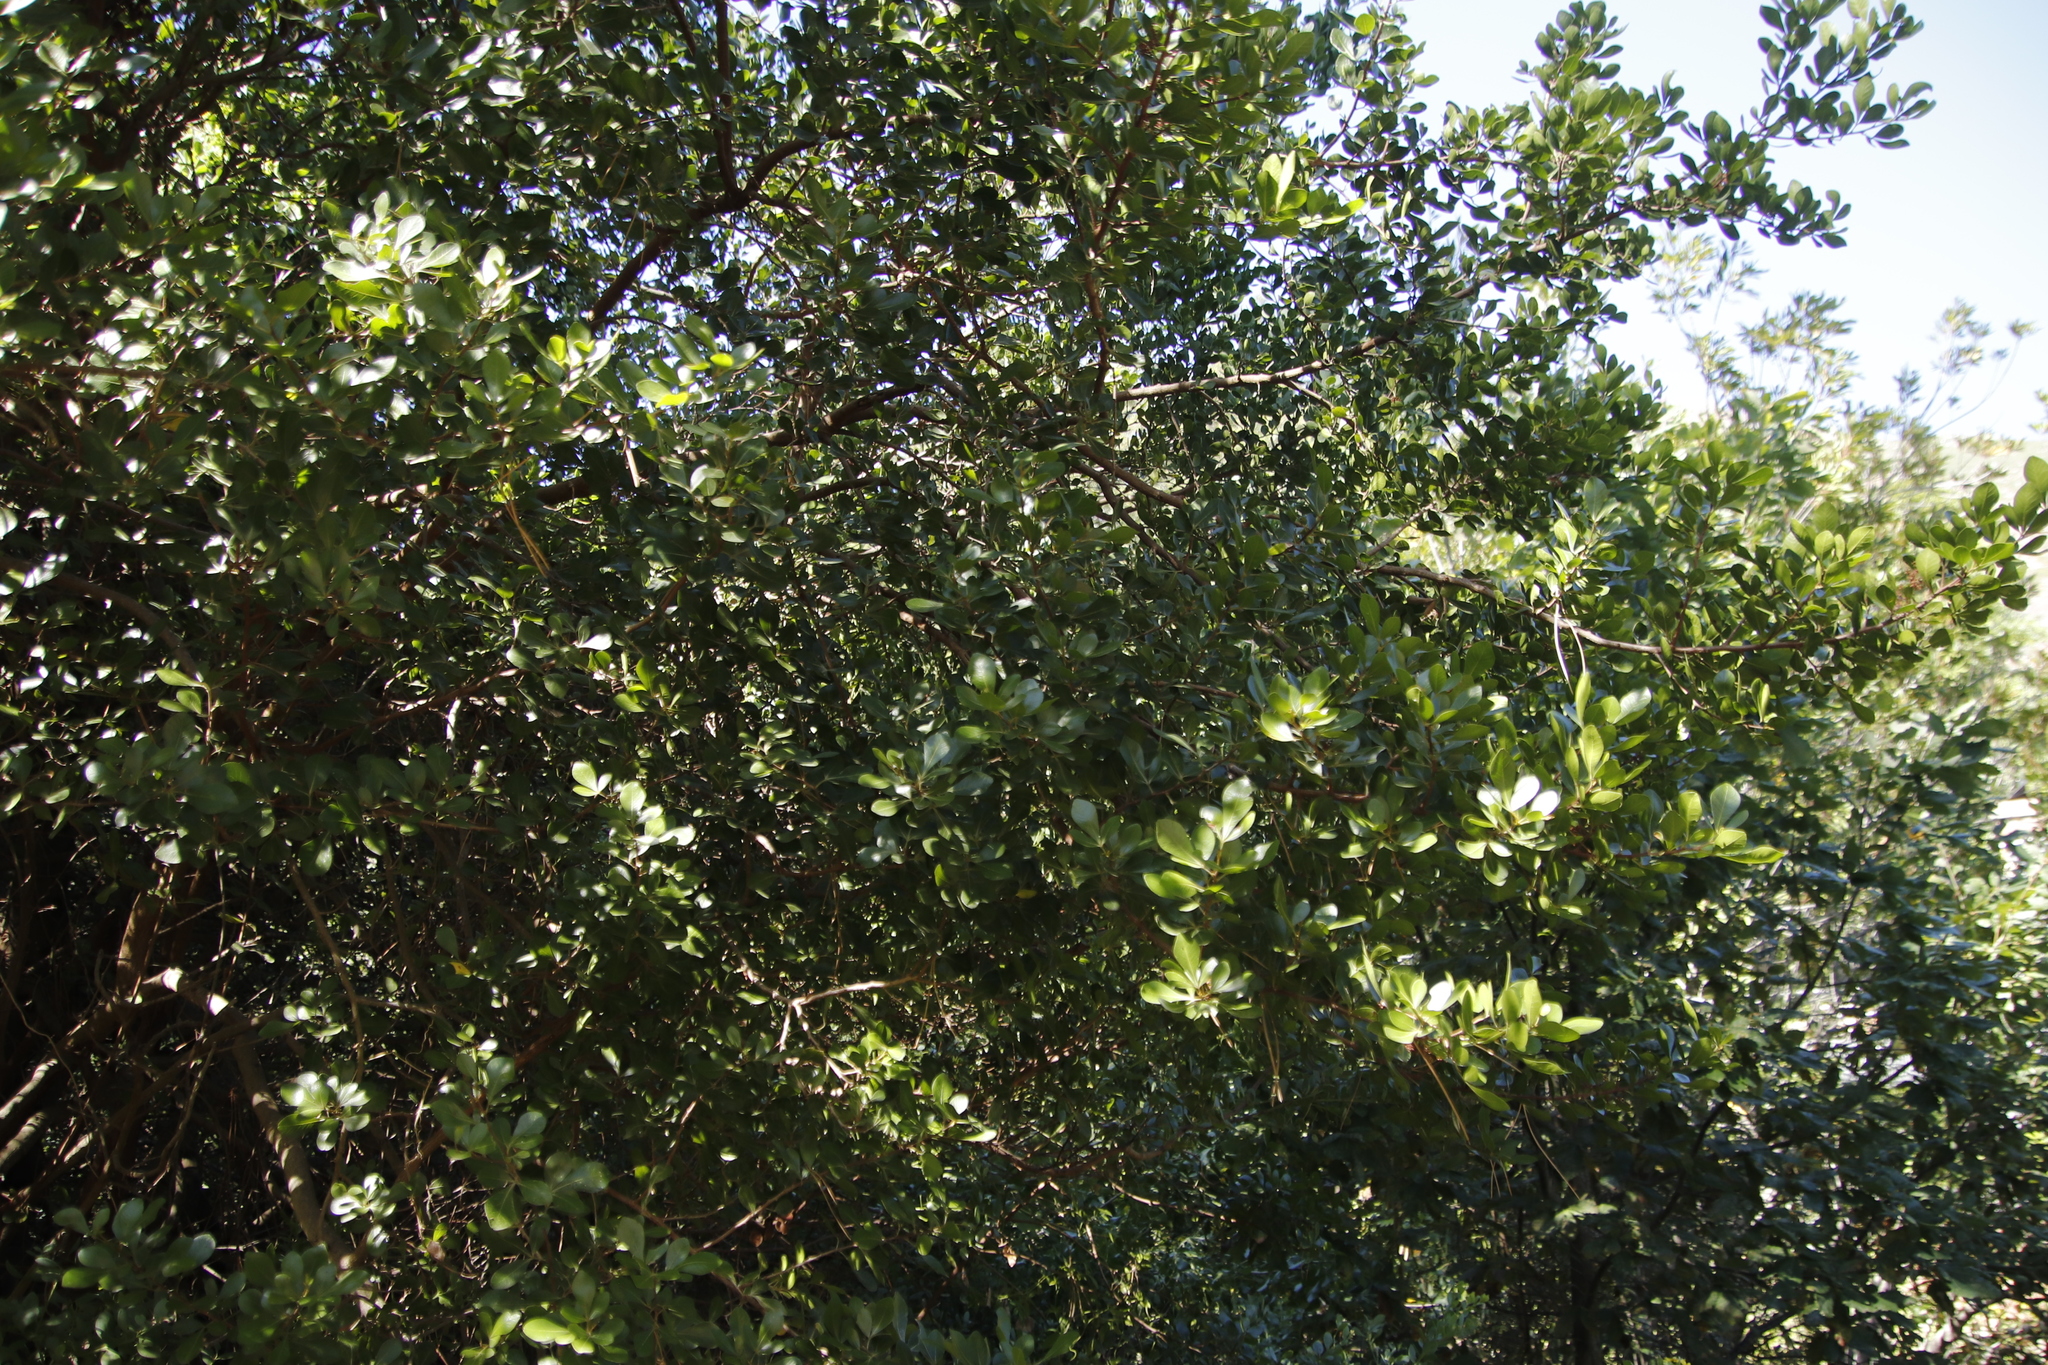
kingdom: Plantae
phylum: Tracheophyta
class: Magnoliopsida
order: Sapindales
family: Anacardiaceae
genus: Searsia
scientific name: Searsia lucida
